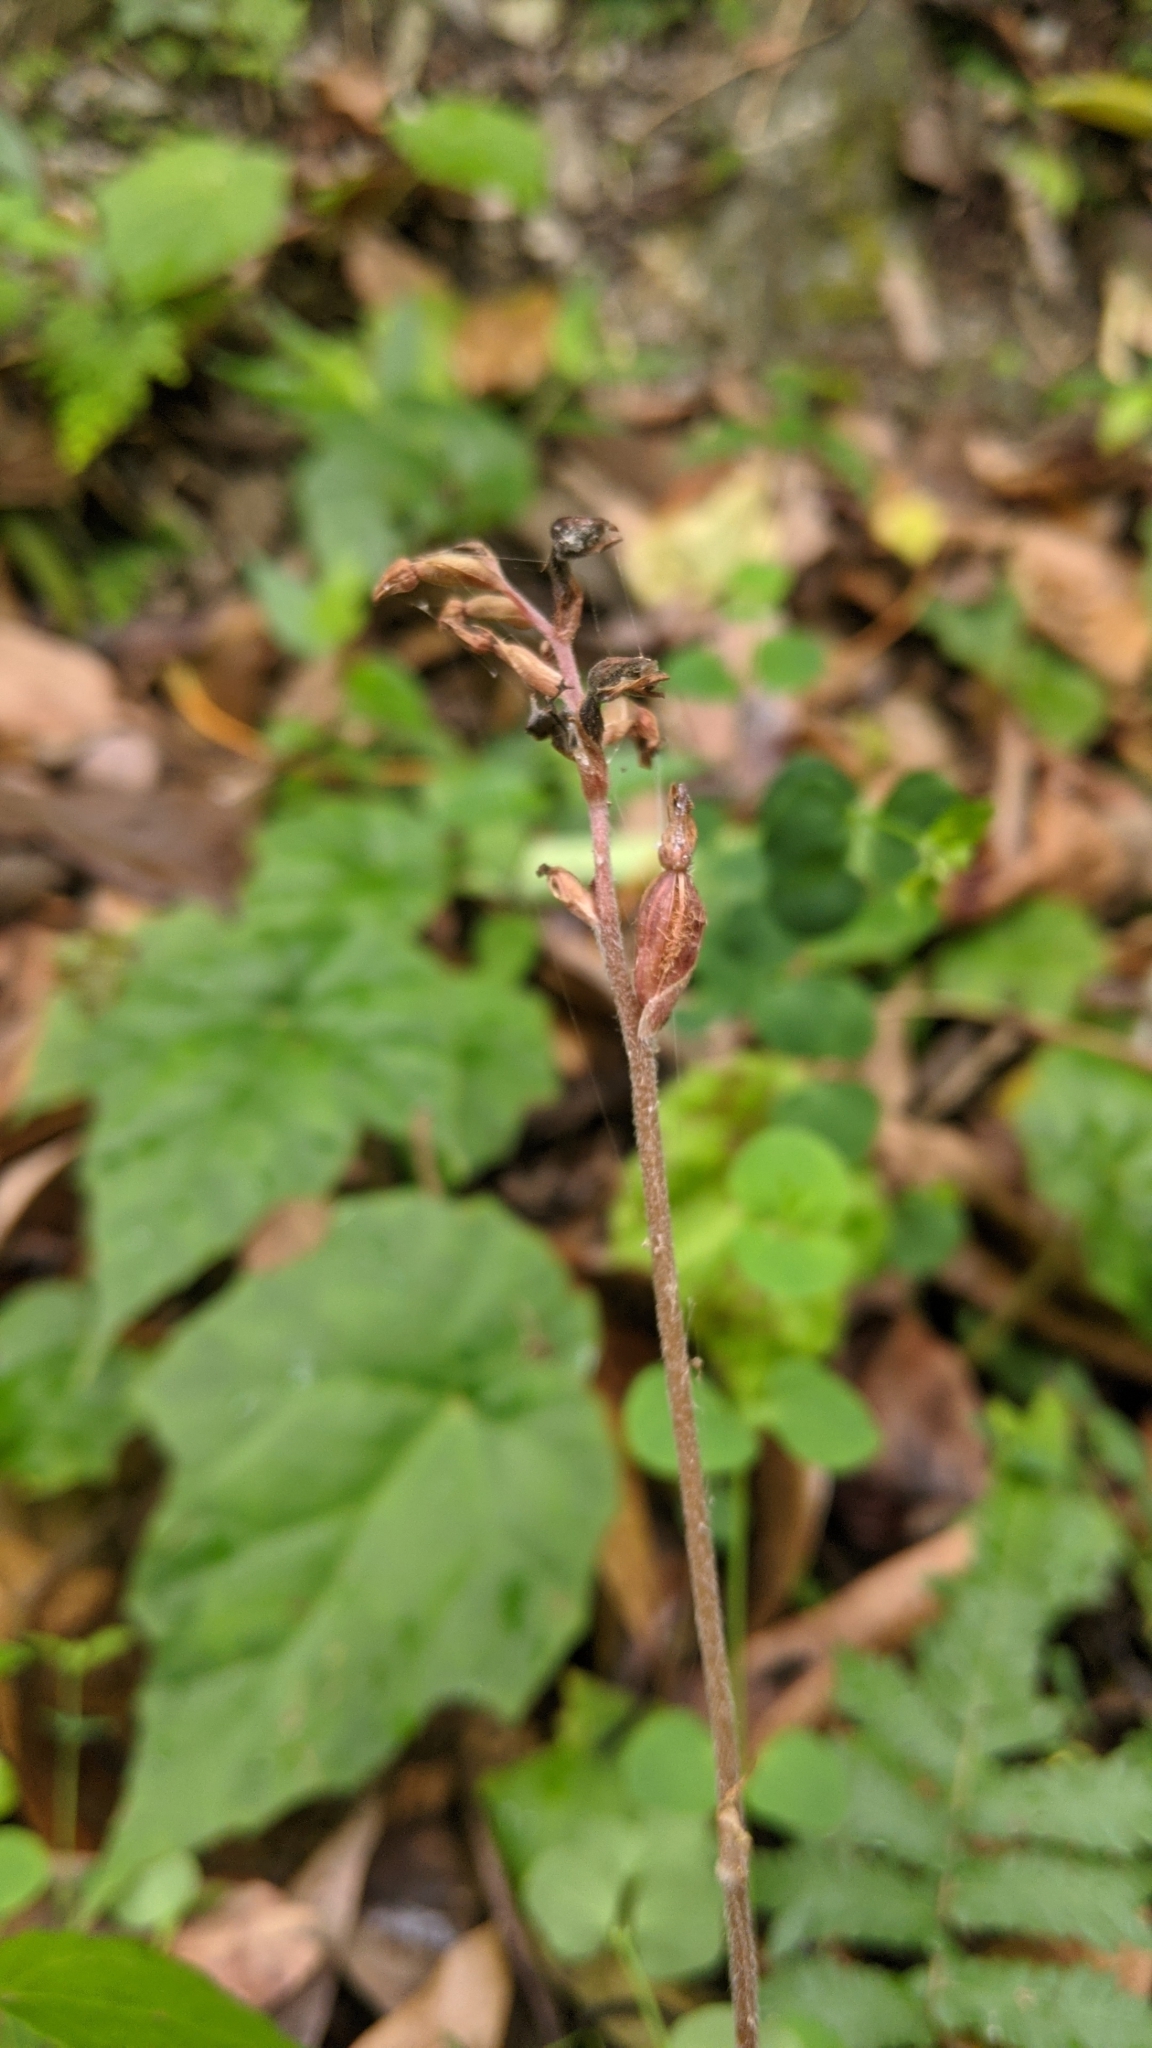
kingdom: Plantae
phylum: Tracheophyta
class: Liliopsida
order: Asparagales
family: Orchidaceae
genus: Zeuxine
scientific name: Zeuxine nervosa
